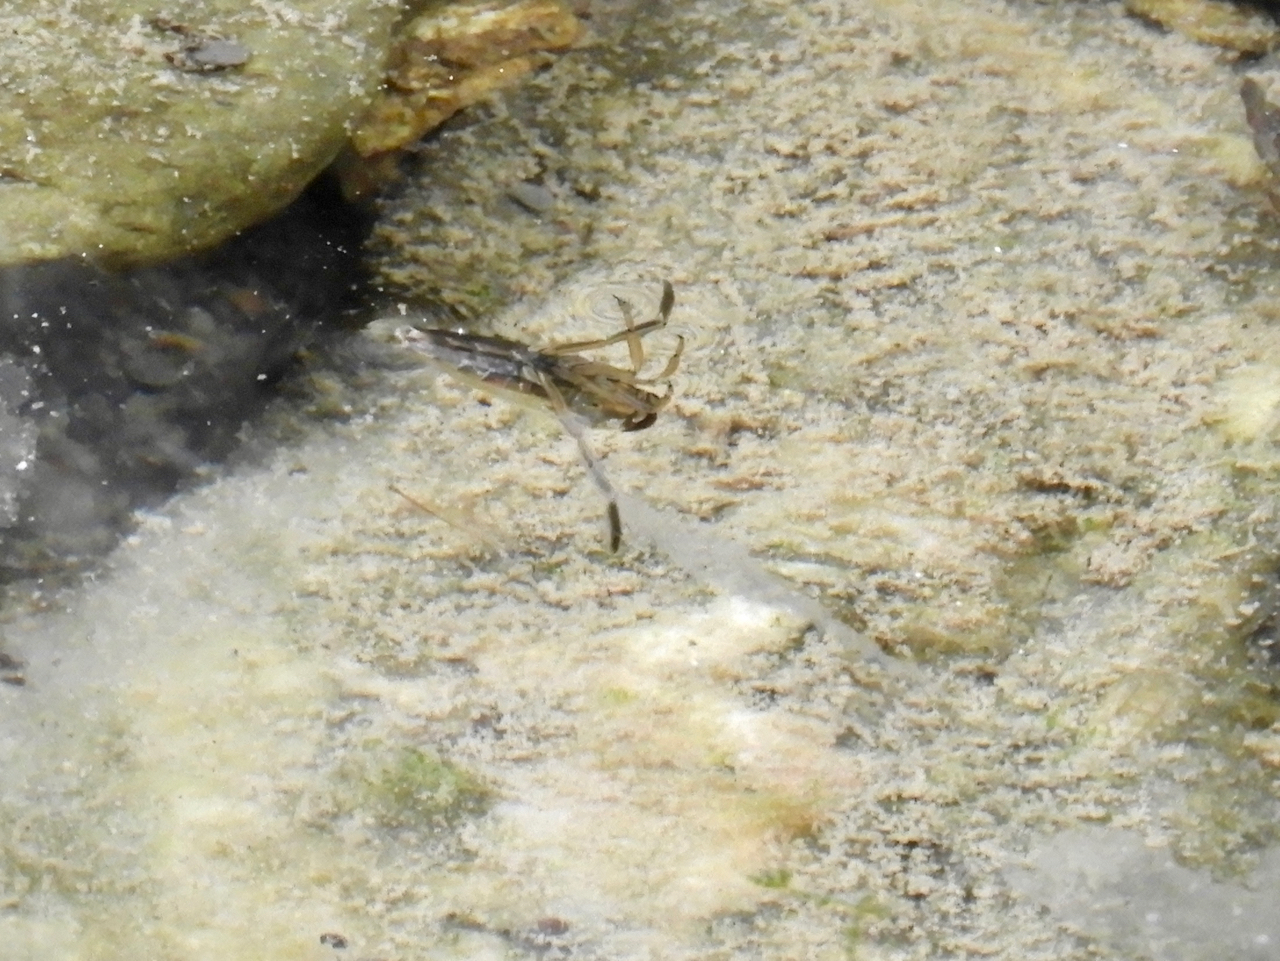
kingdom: Animalia
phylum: Arthropoda
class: Insecta
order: Hemiptera
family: Notonectidae
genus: Notonecta
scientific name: Notonecta
